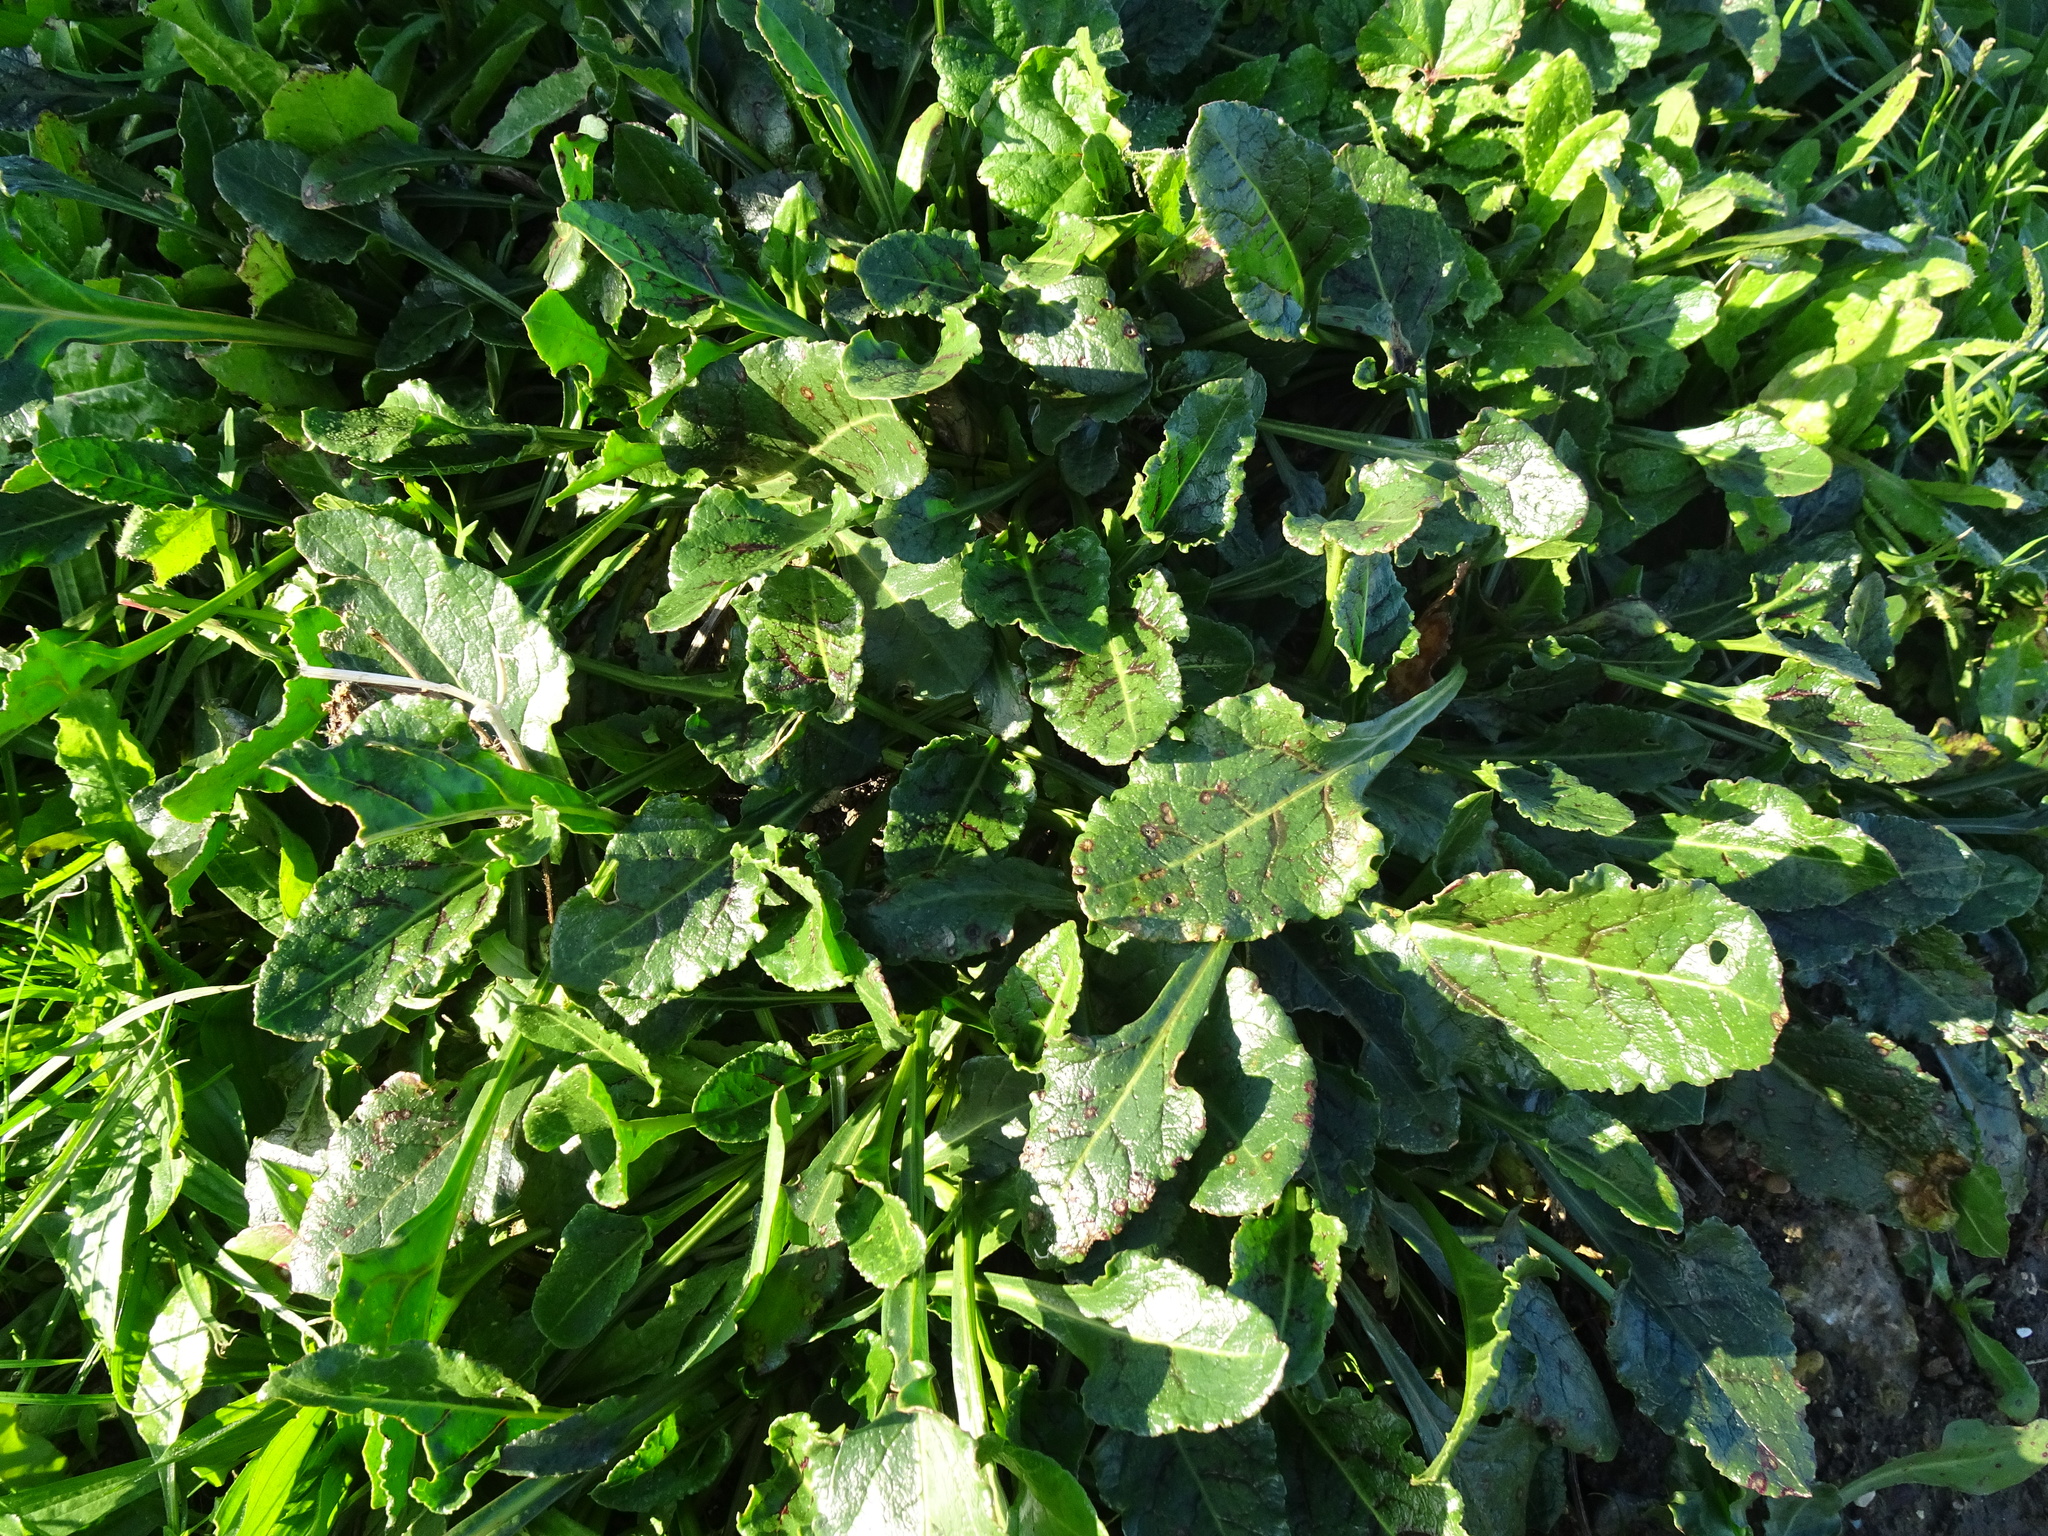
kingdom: Plantae
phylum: Tracheophyta
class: Magnoliopsida
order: Caryophyllales
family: Amaranthaceae
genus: Beta
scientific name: Beta vulgaris
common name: Beet
